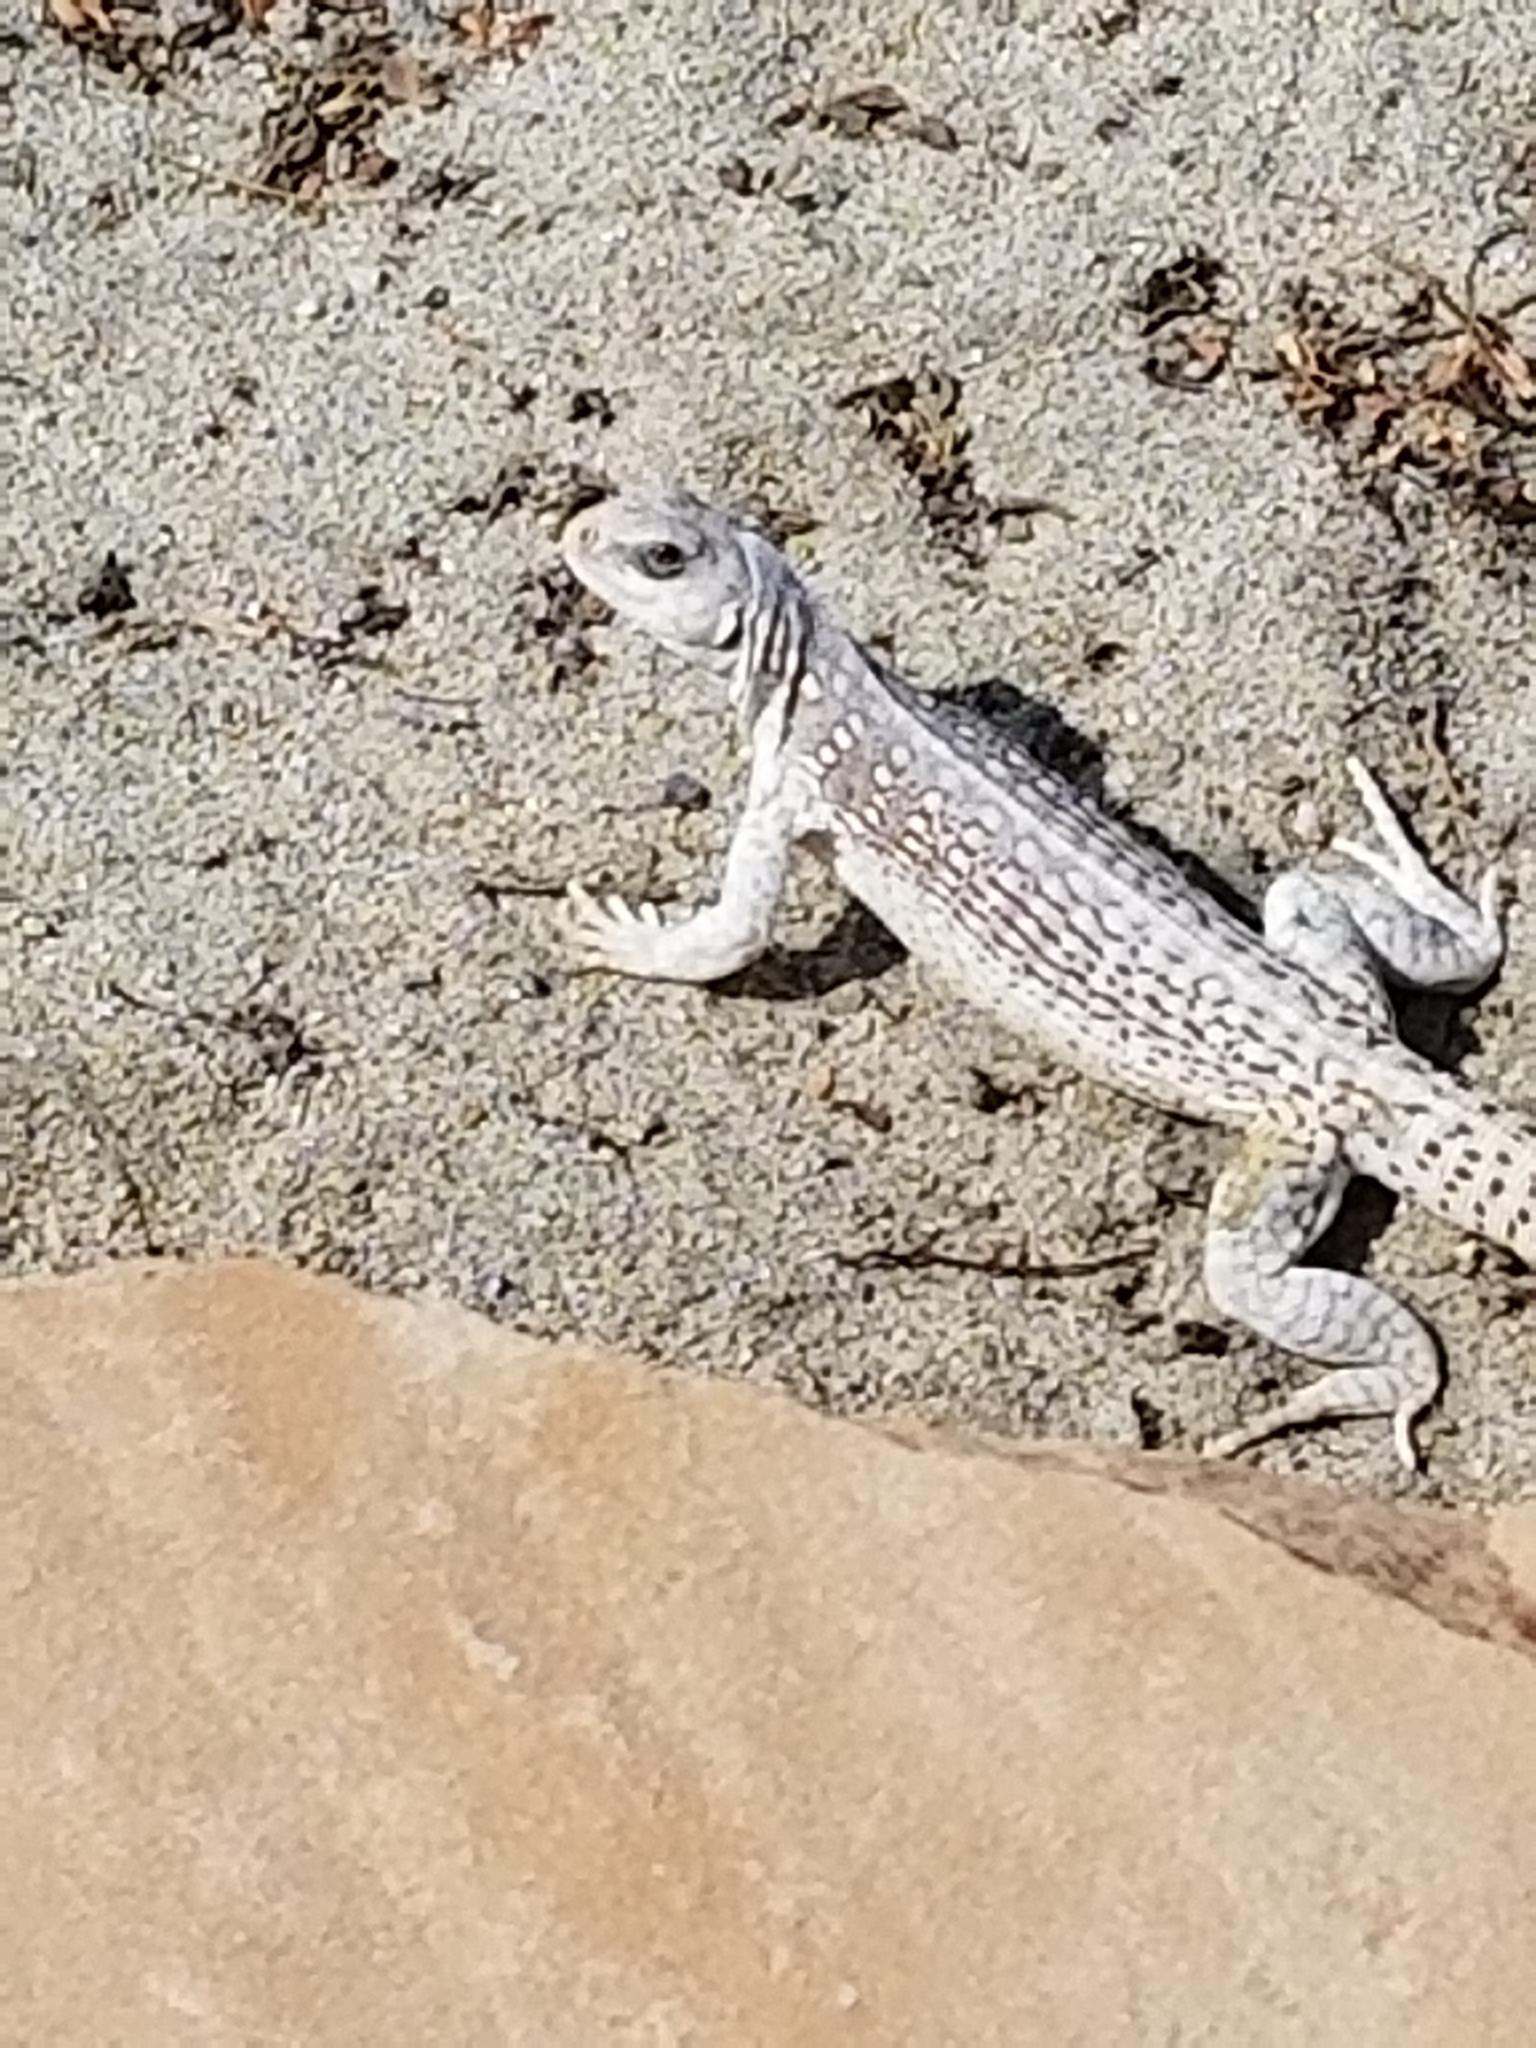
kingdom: Animalia
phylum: Chordata
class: Squamata
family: Iguanidae
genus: Dipsosaurus
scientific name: Dipsosaurus dorsalis
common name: Desert iguana
